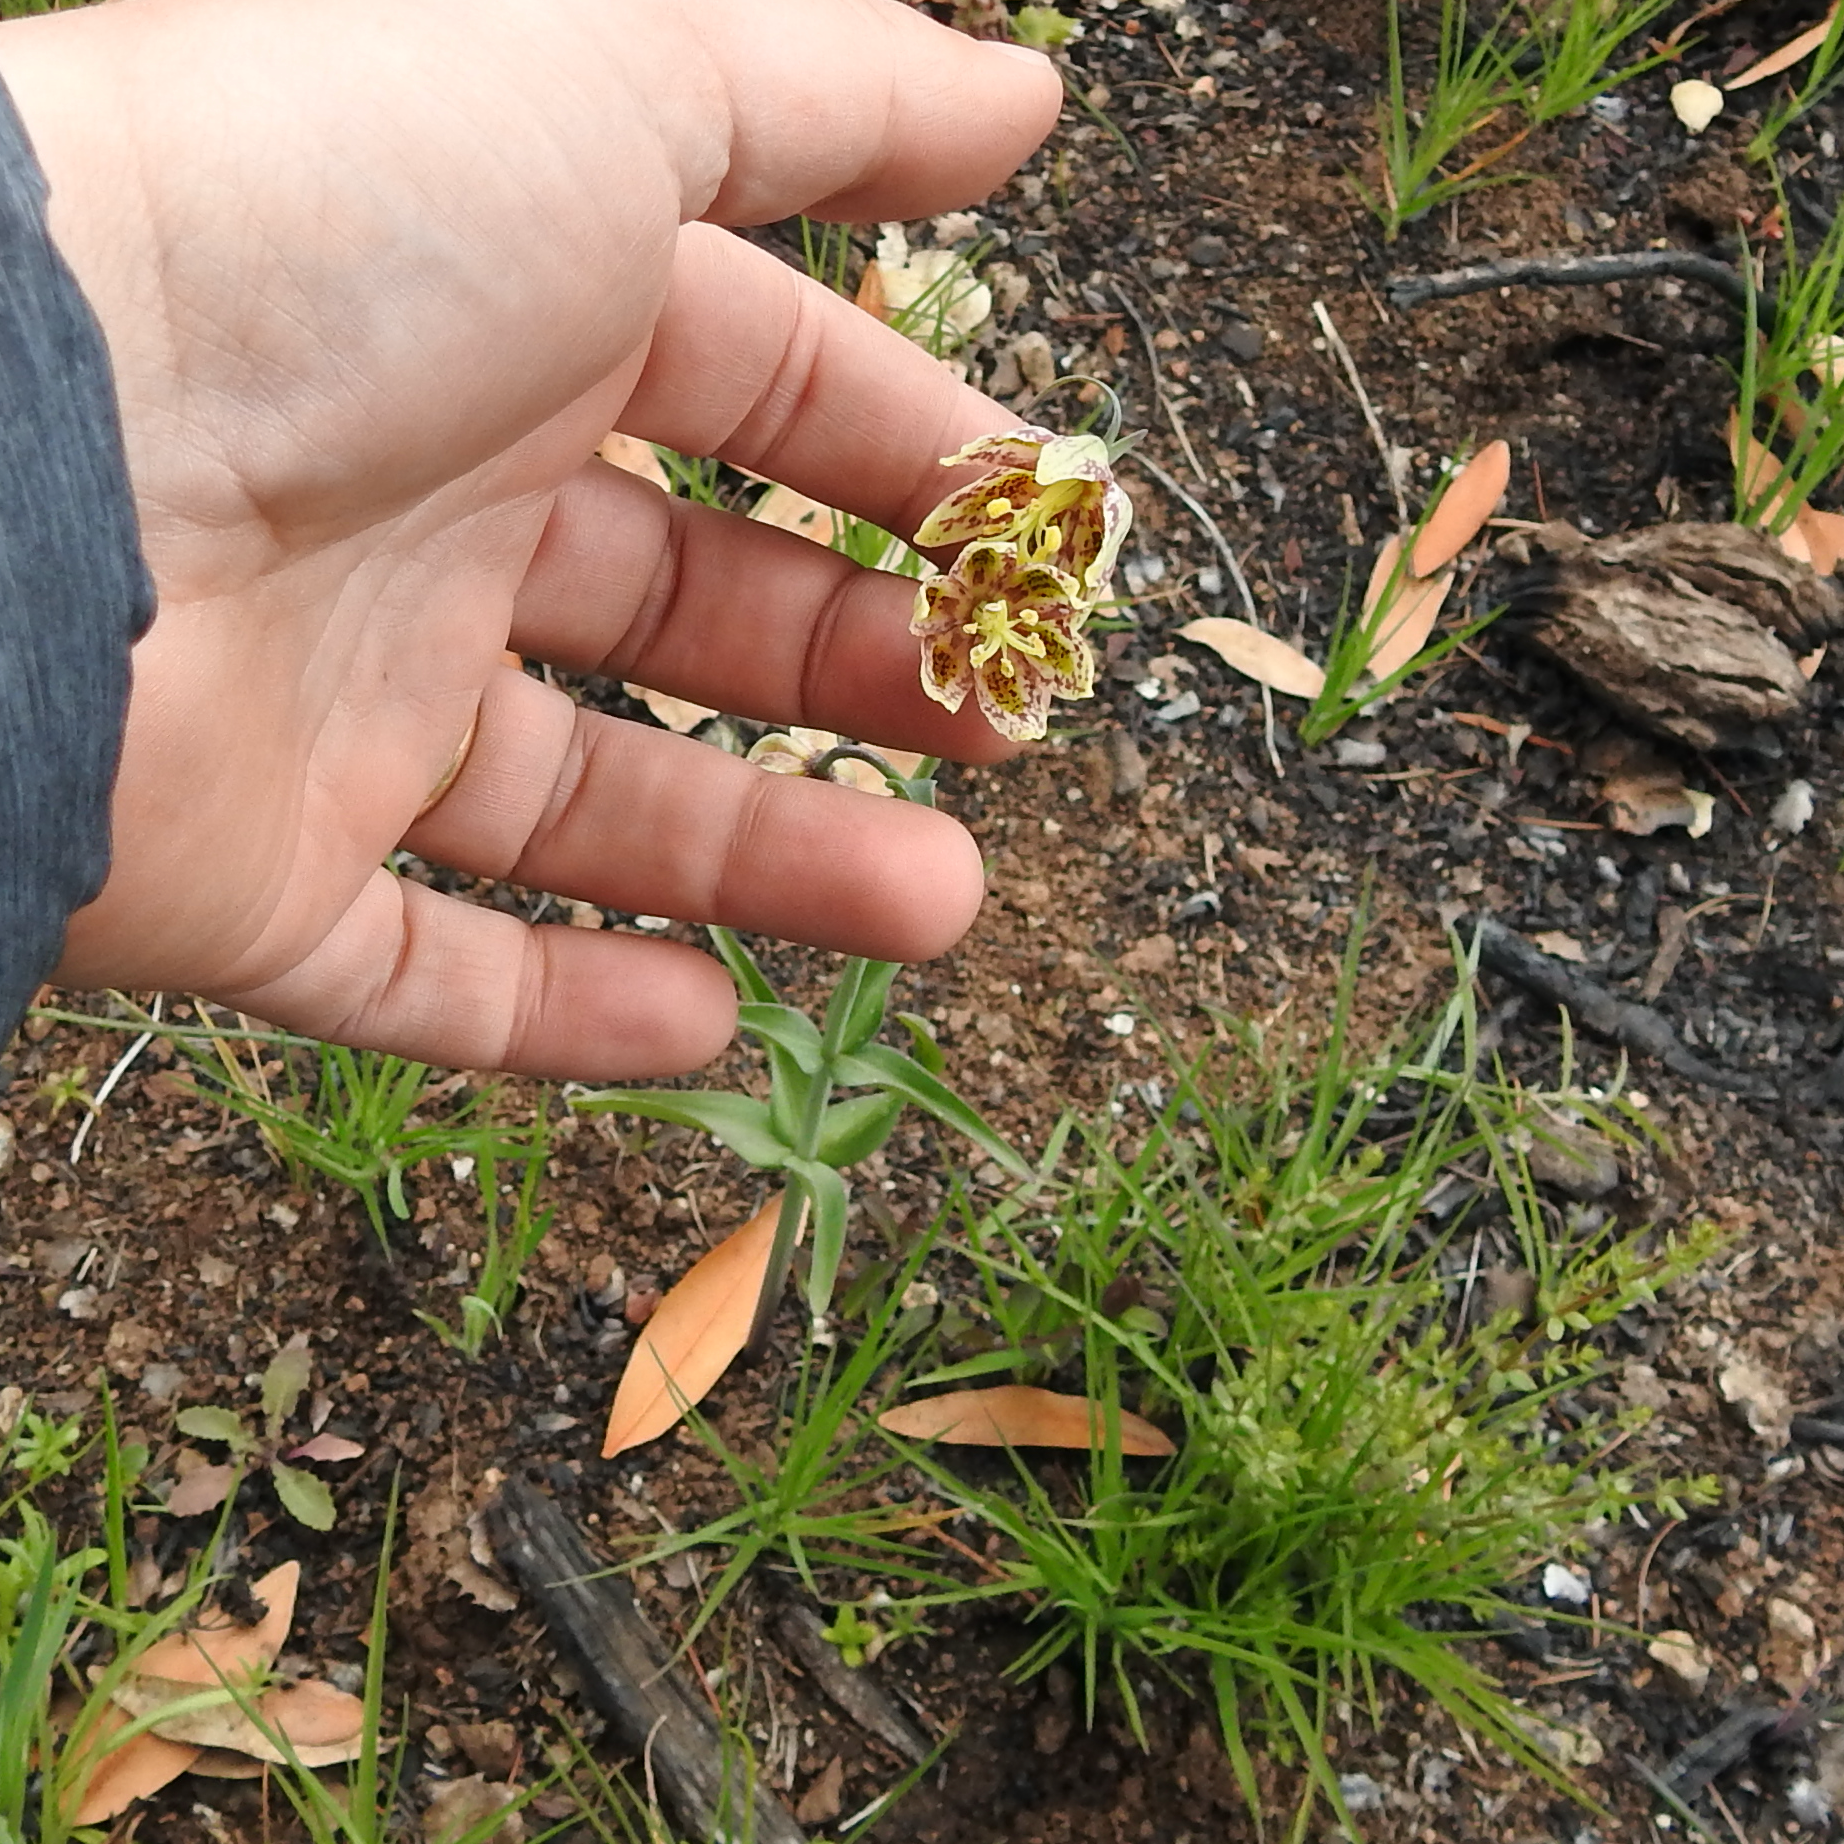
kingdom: Plantae
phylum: Tracheophyta
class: Liliopsida
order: Liliales
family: Liliaceae
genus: Fritillaria
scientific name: Fritillaria affinis
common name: Ojai fritillary
